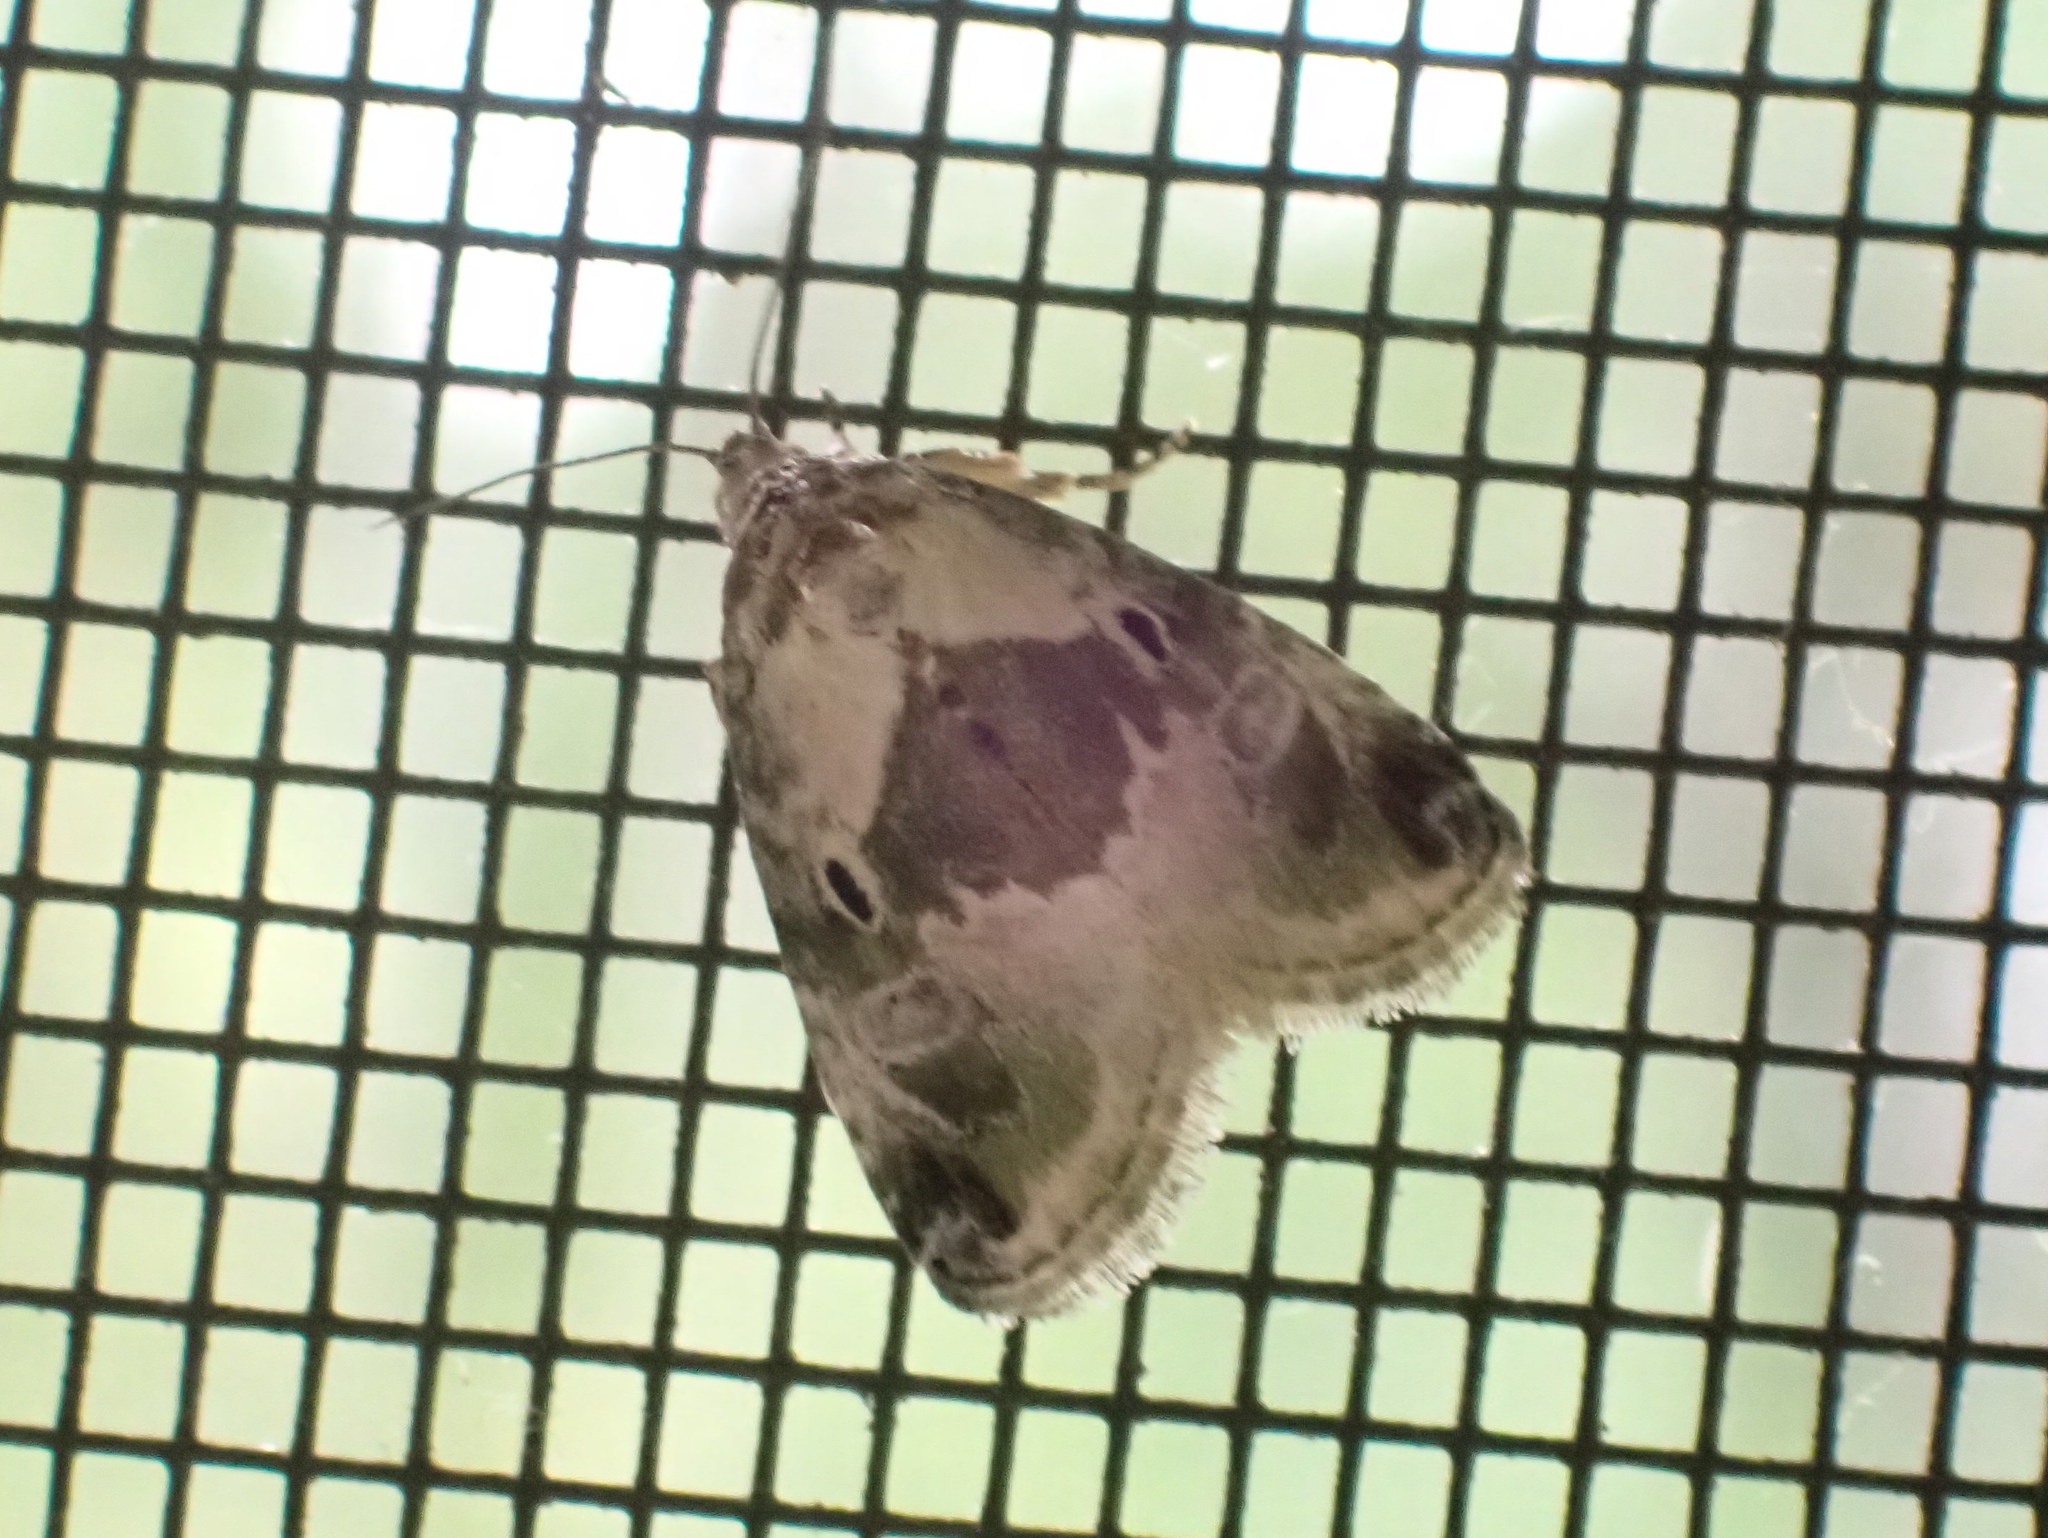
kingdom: Animalia
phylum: Arthropoda
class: Insecta
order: Lepidoptera
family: Noctuidae
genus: Maliattha
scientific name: Maliattha synochitis
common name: Black-dotted glyph
